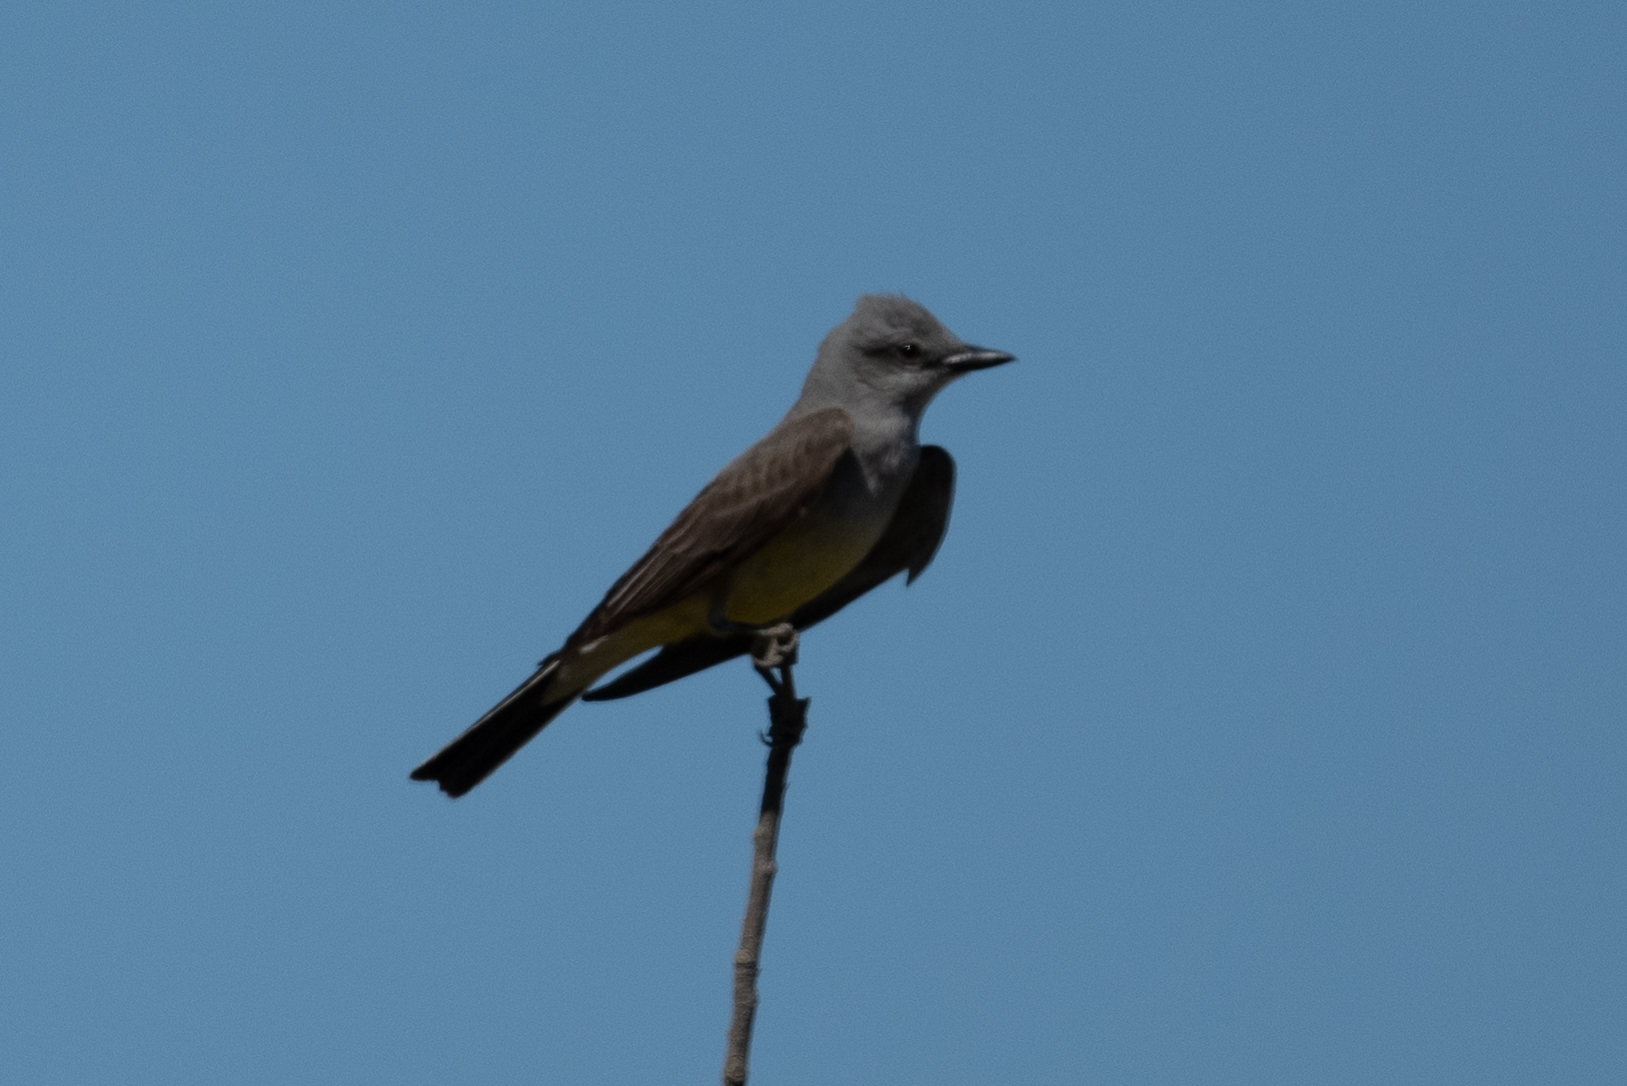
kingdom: Animalia
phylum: Chordata
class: Aves
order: Passeriformes
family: Tyrannidae
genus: Tyrannus
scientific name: Tyrannus verticalis
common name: Western kingbird
